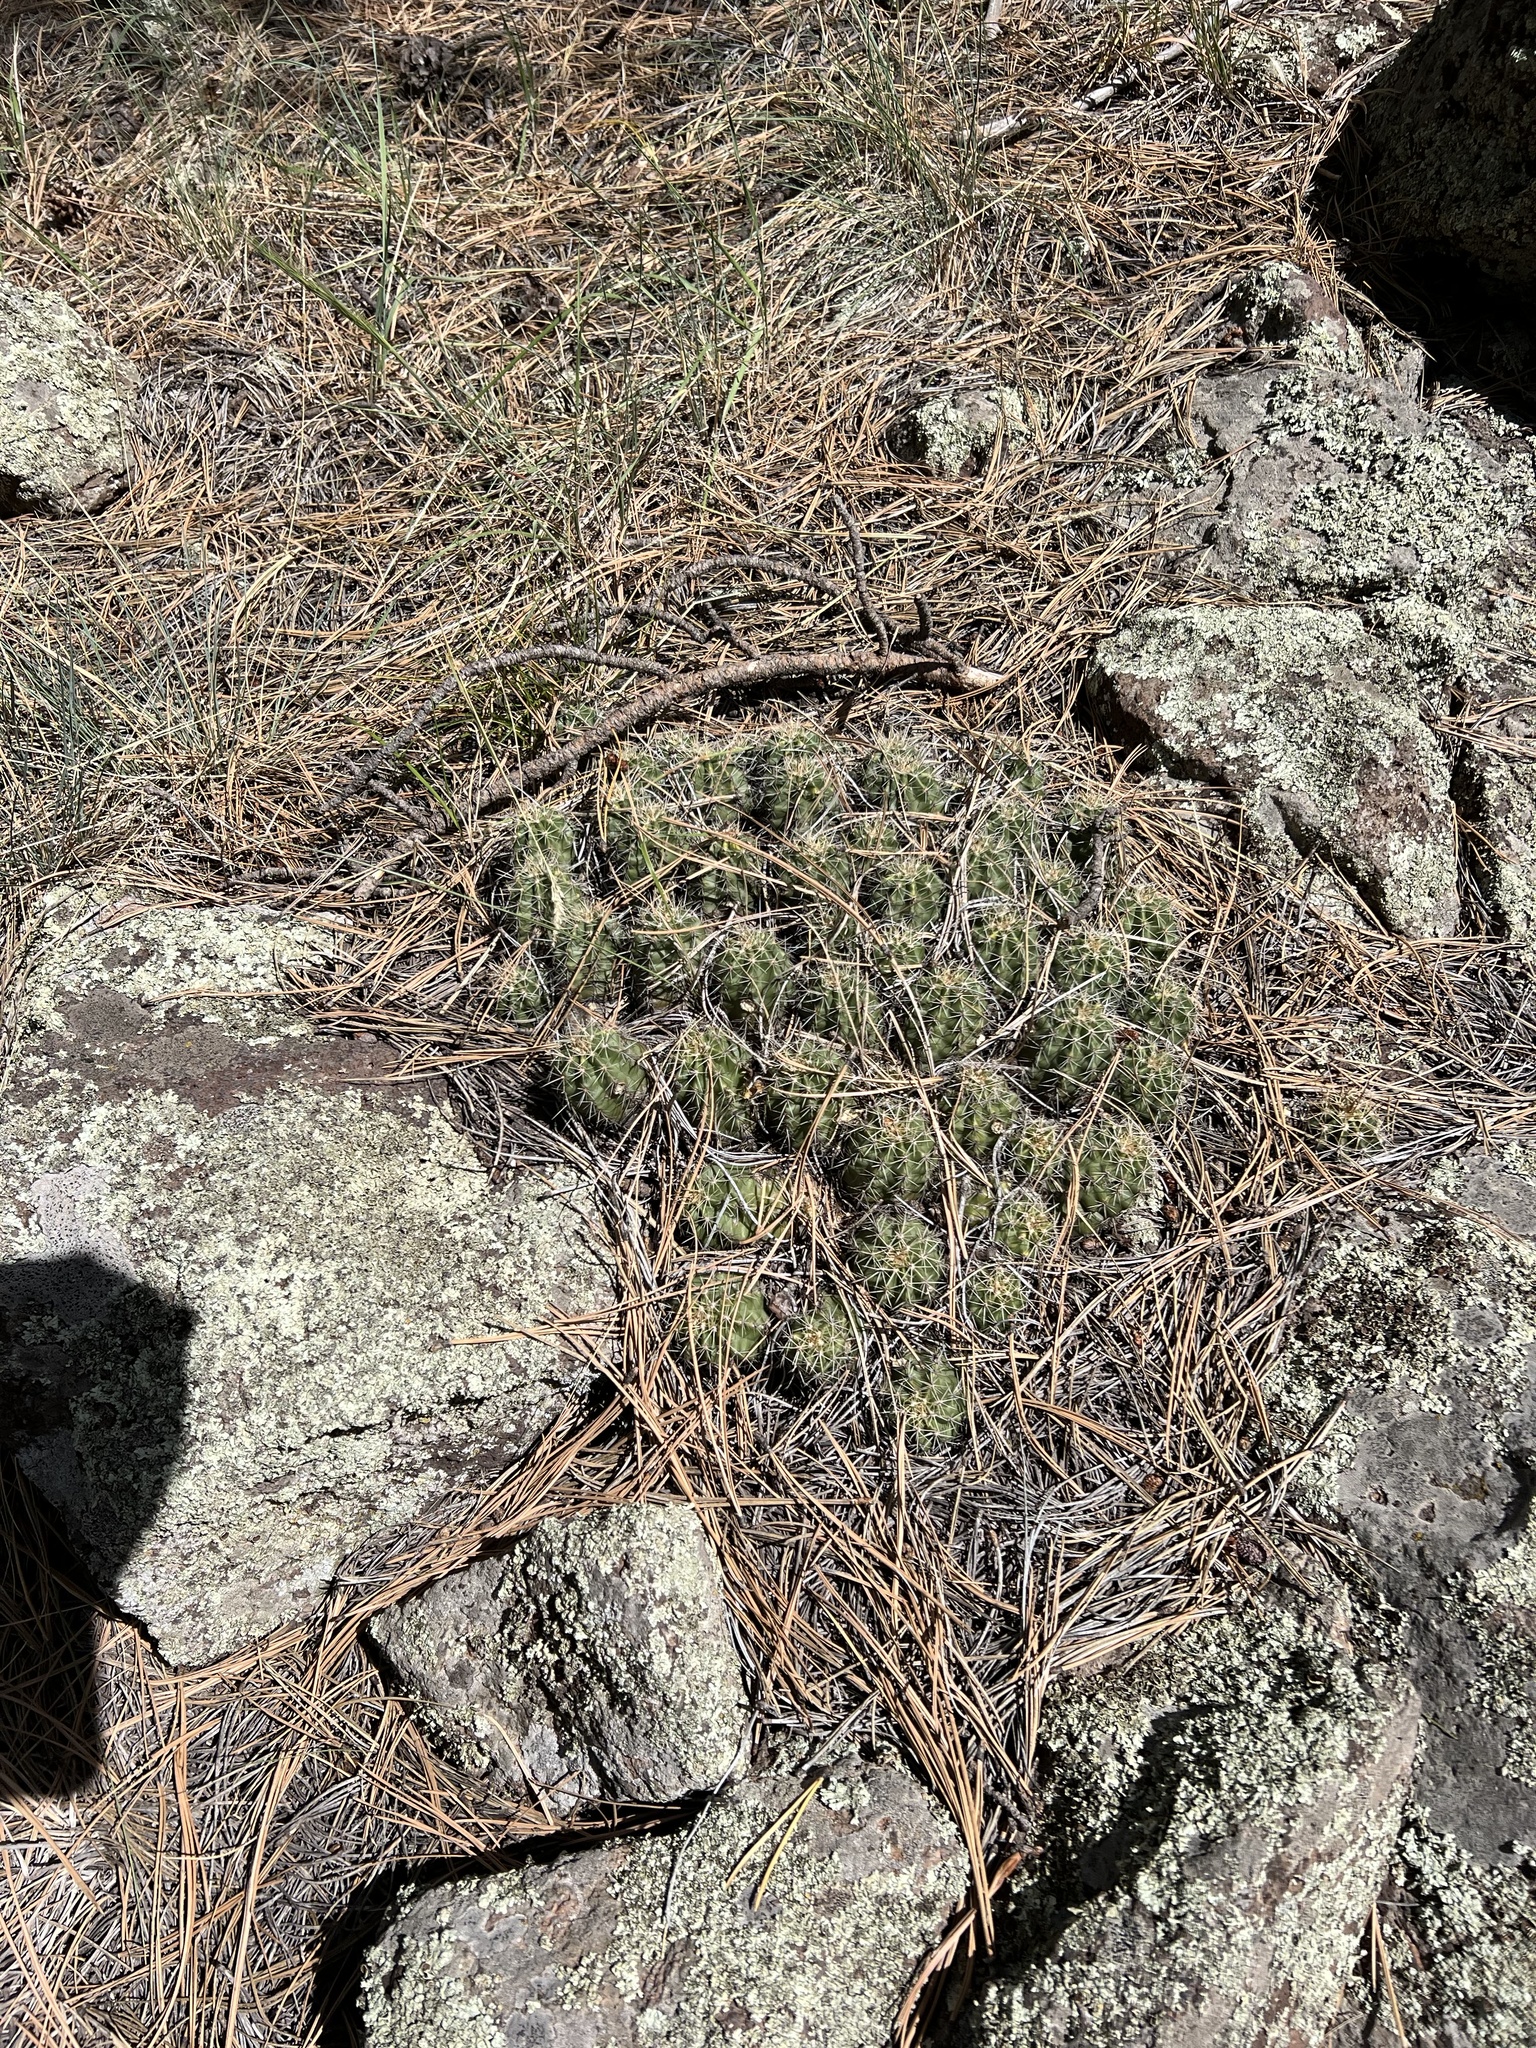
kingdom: Plantae
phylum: Tracheophyta
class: Magnoliopsida
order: Caryophyllales
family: Cactaceae
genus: Echinocereus
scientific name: Echinocereus bakeri
